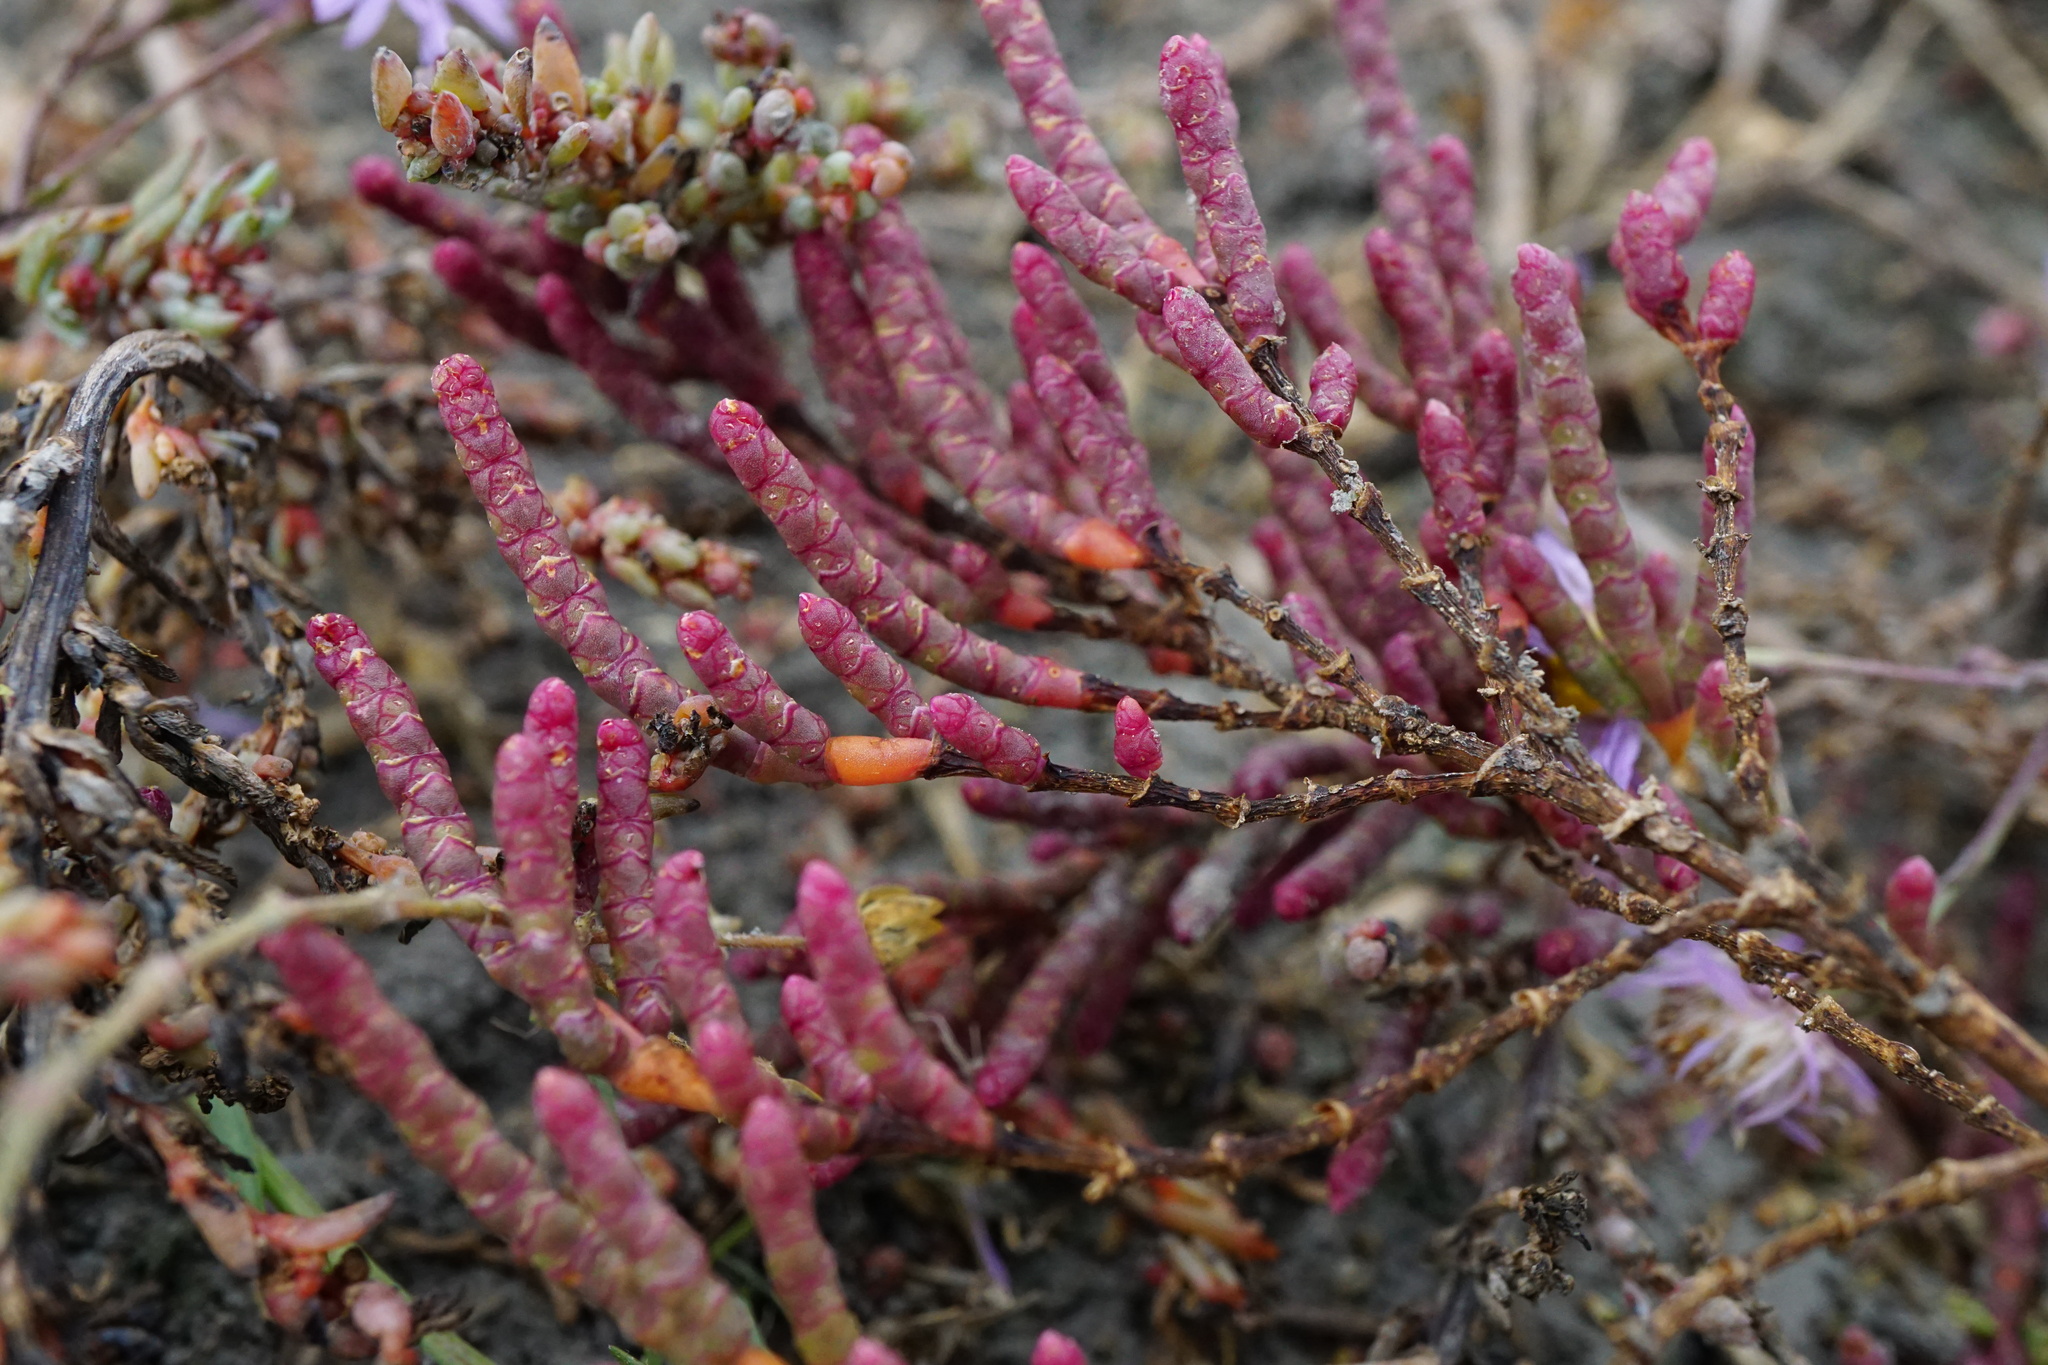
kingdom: Plantae
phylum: Tracheophyta
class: Magnoliopsida
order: Caryophyllales
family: Amaranthaceae
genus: Salicornia
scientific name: Salicornia perennans
